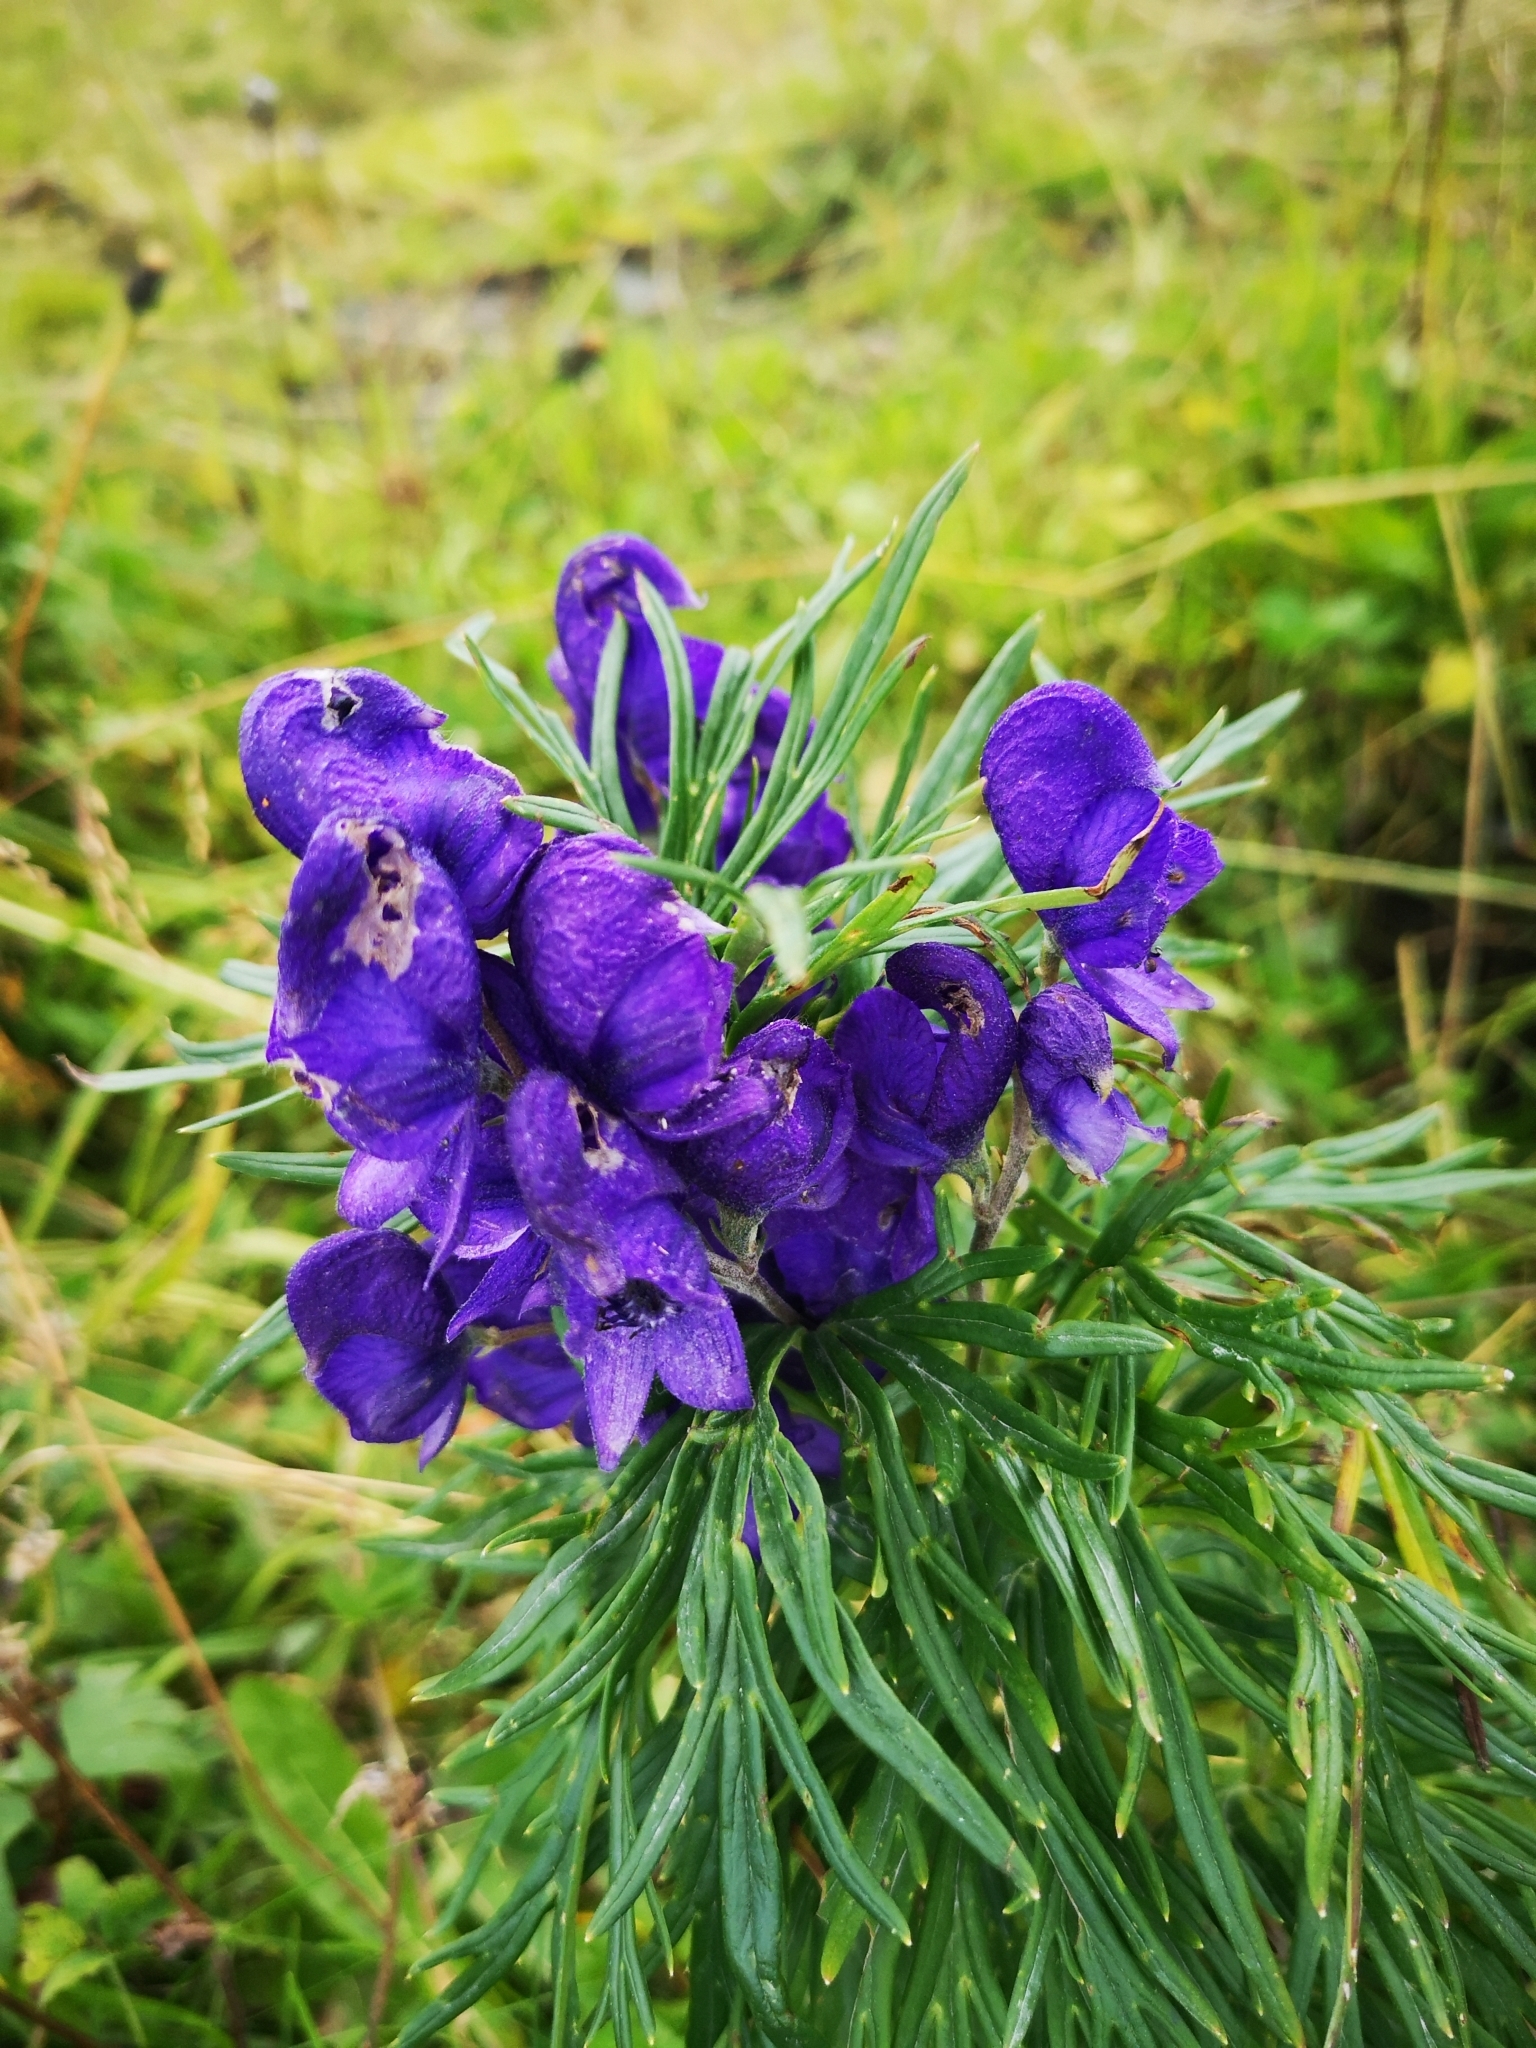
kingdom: Plantae
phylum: Tracheophyta
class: Magnoliopsida
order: Ranunculales
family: Ranunculaceae
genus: Aconitum
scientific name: Aconitum napellus
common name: Garden monkshood
